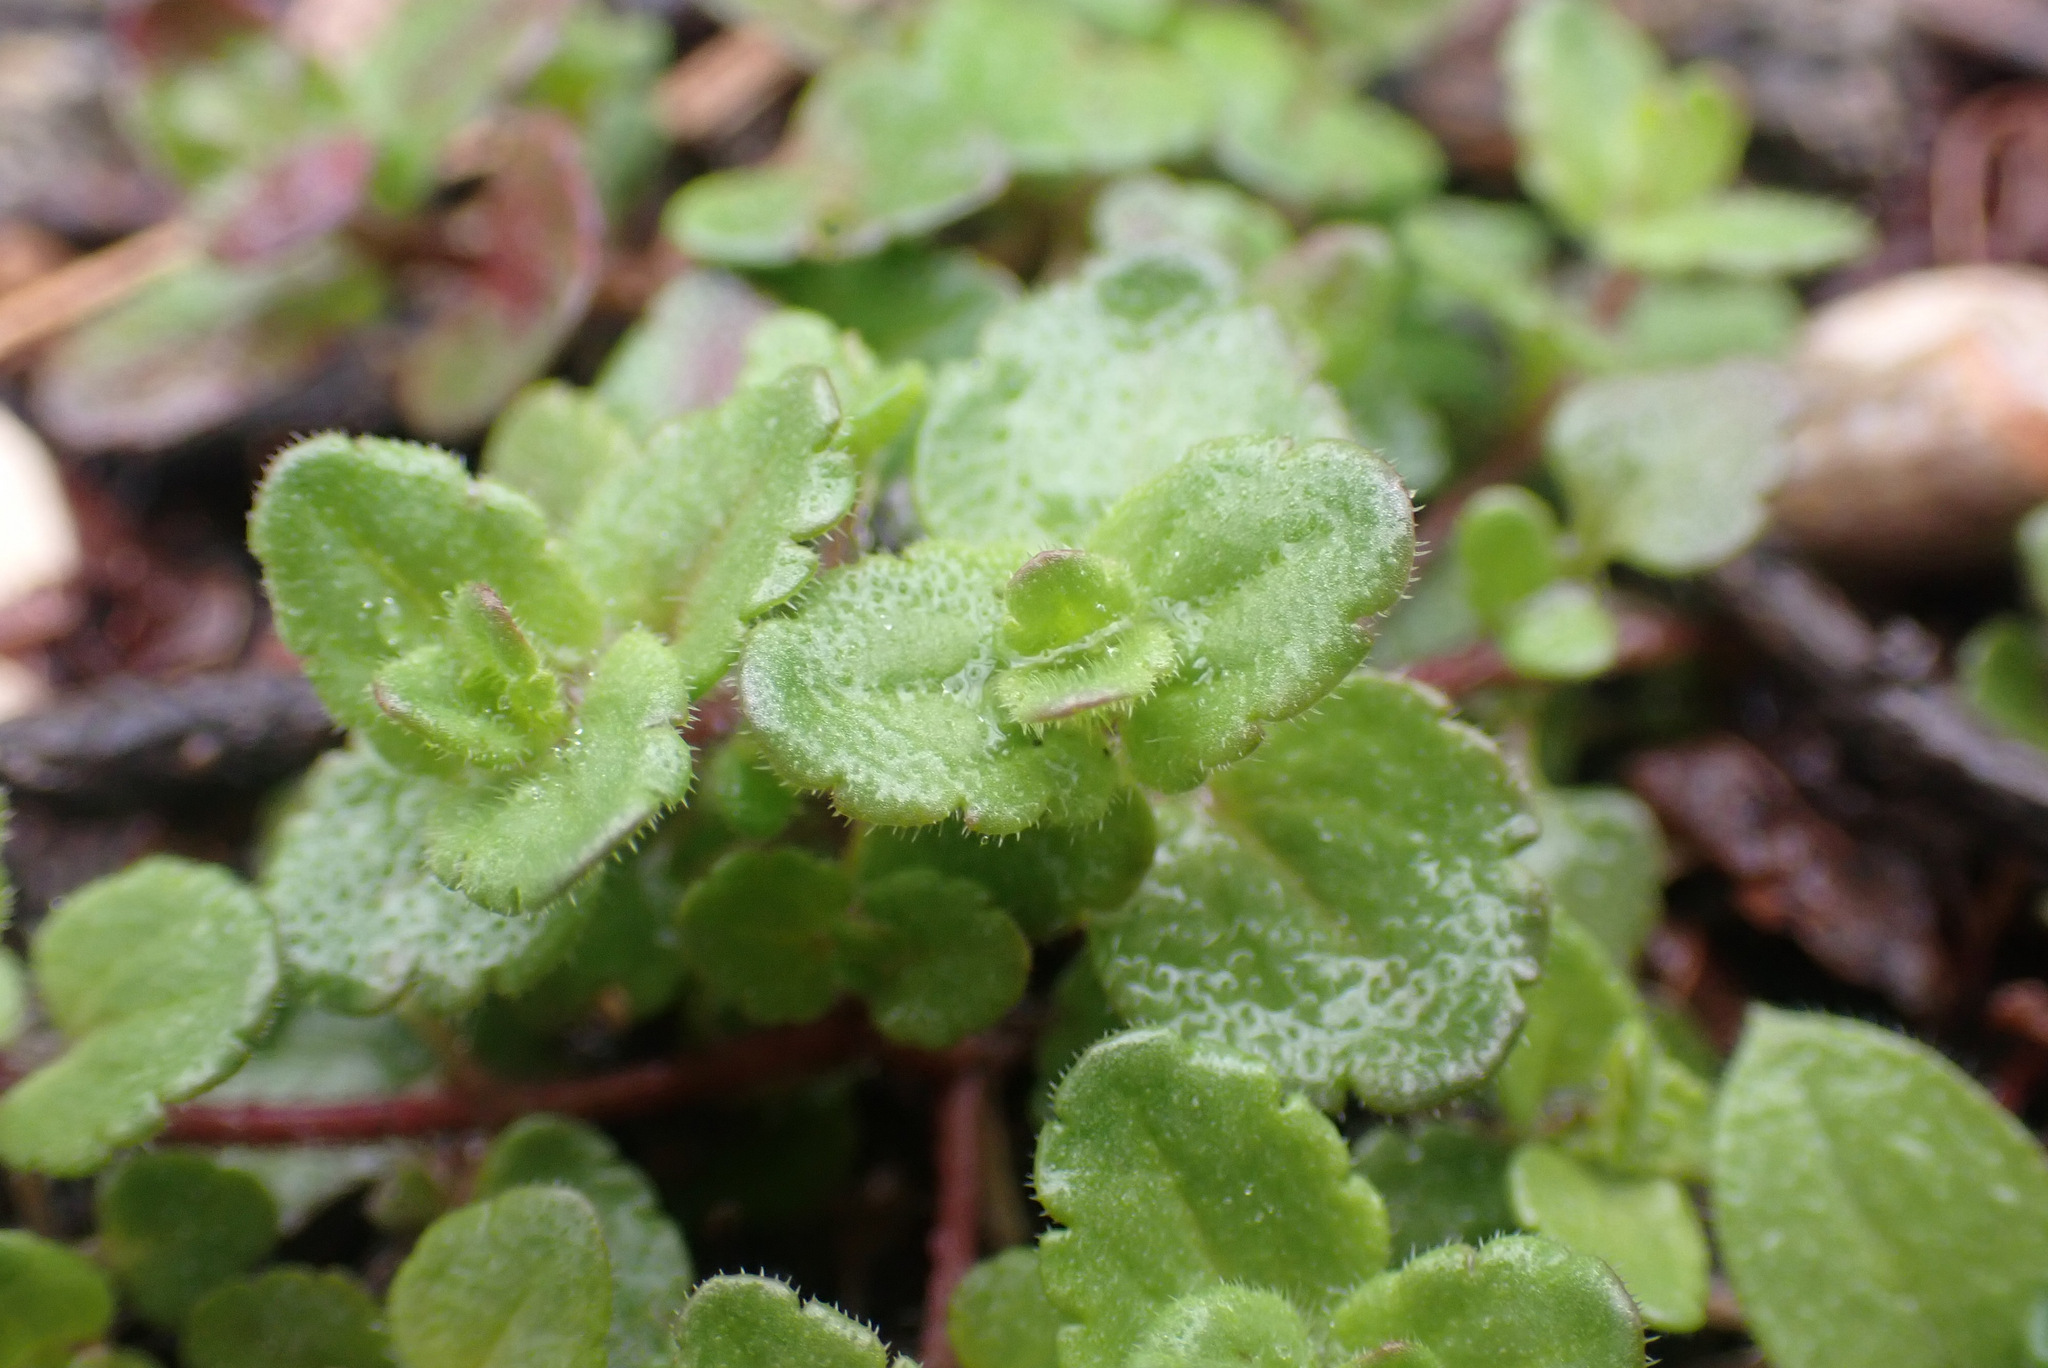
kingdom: Plantae
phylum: Tracheophyta
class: Magnoliopsida
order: Lamiales
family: Plantaginaceae
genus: Veronica
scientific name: Veronica arvensis
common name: Corn speedwell
